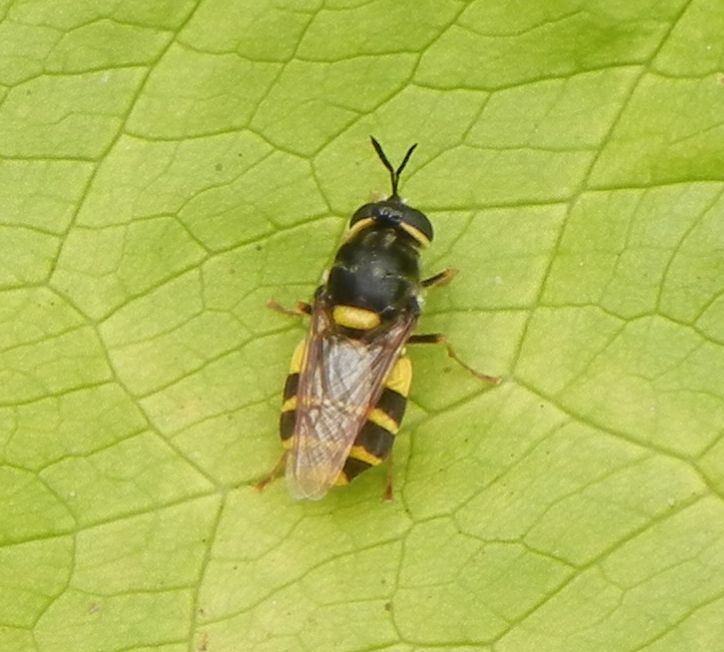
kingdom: Animalia
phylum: Arthropoda
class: Insecta
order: Diptera
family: Stratiomyidae
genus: Stratiomys
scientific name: Stratiomys potamida
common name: Banded general
